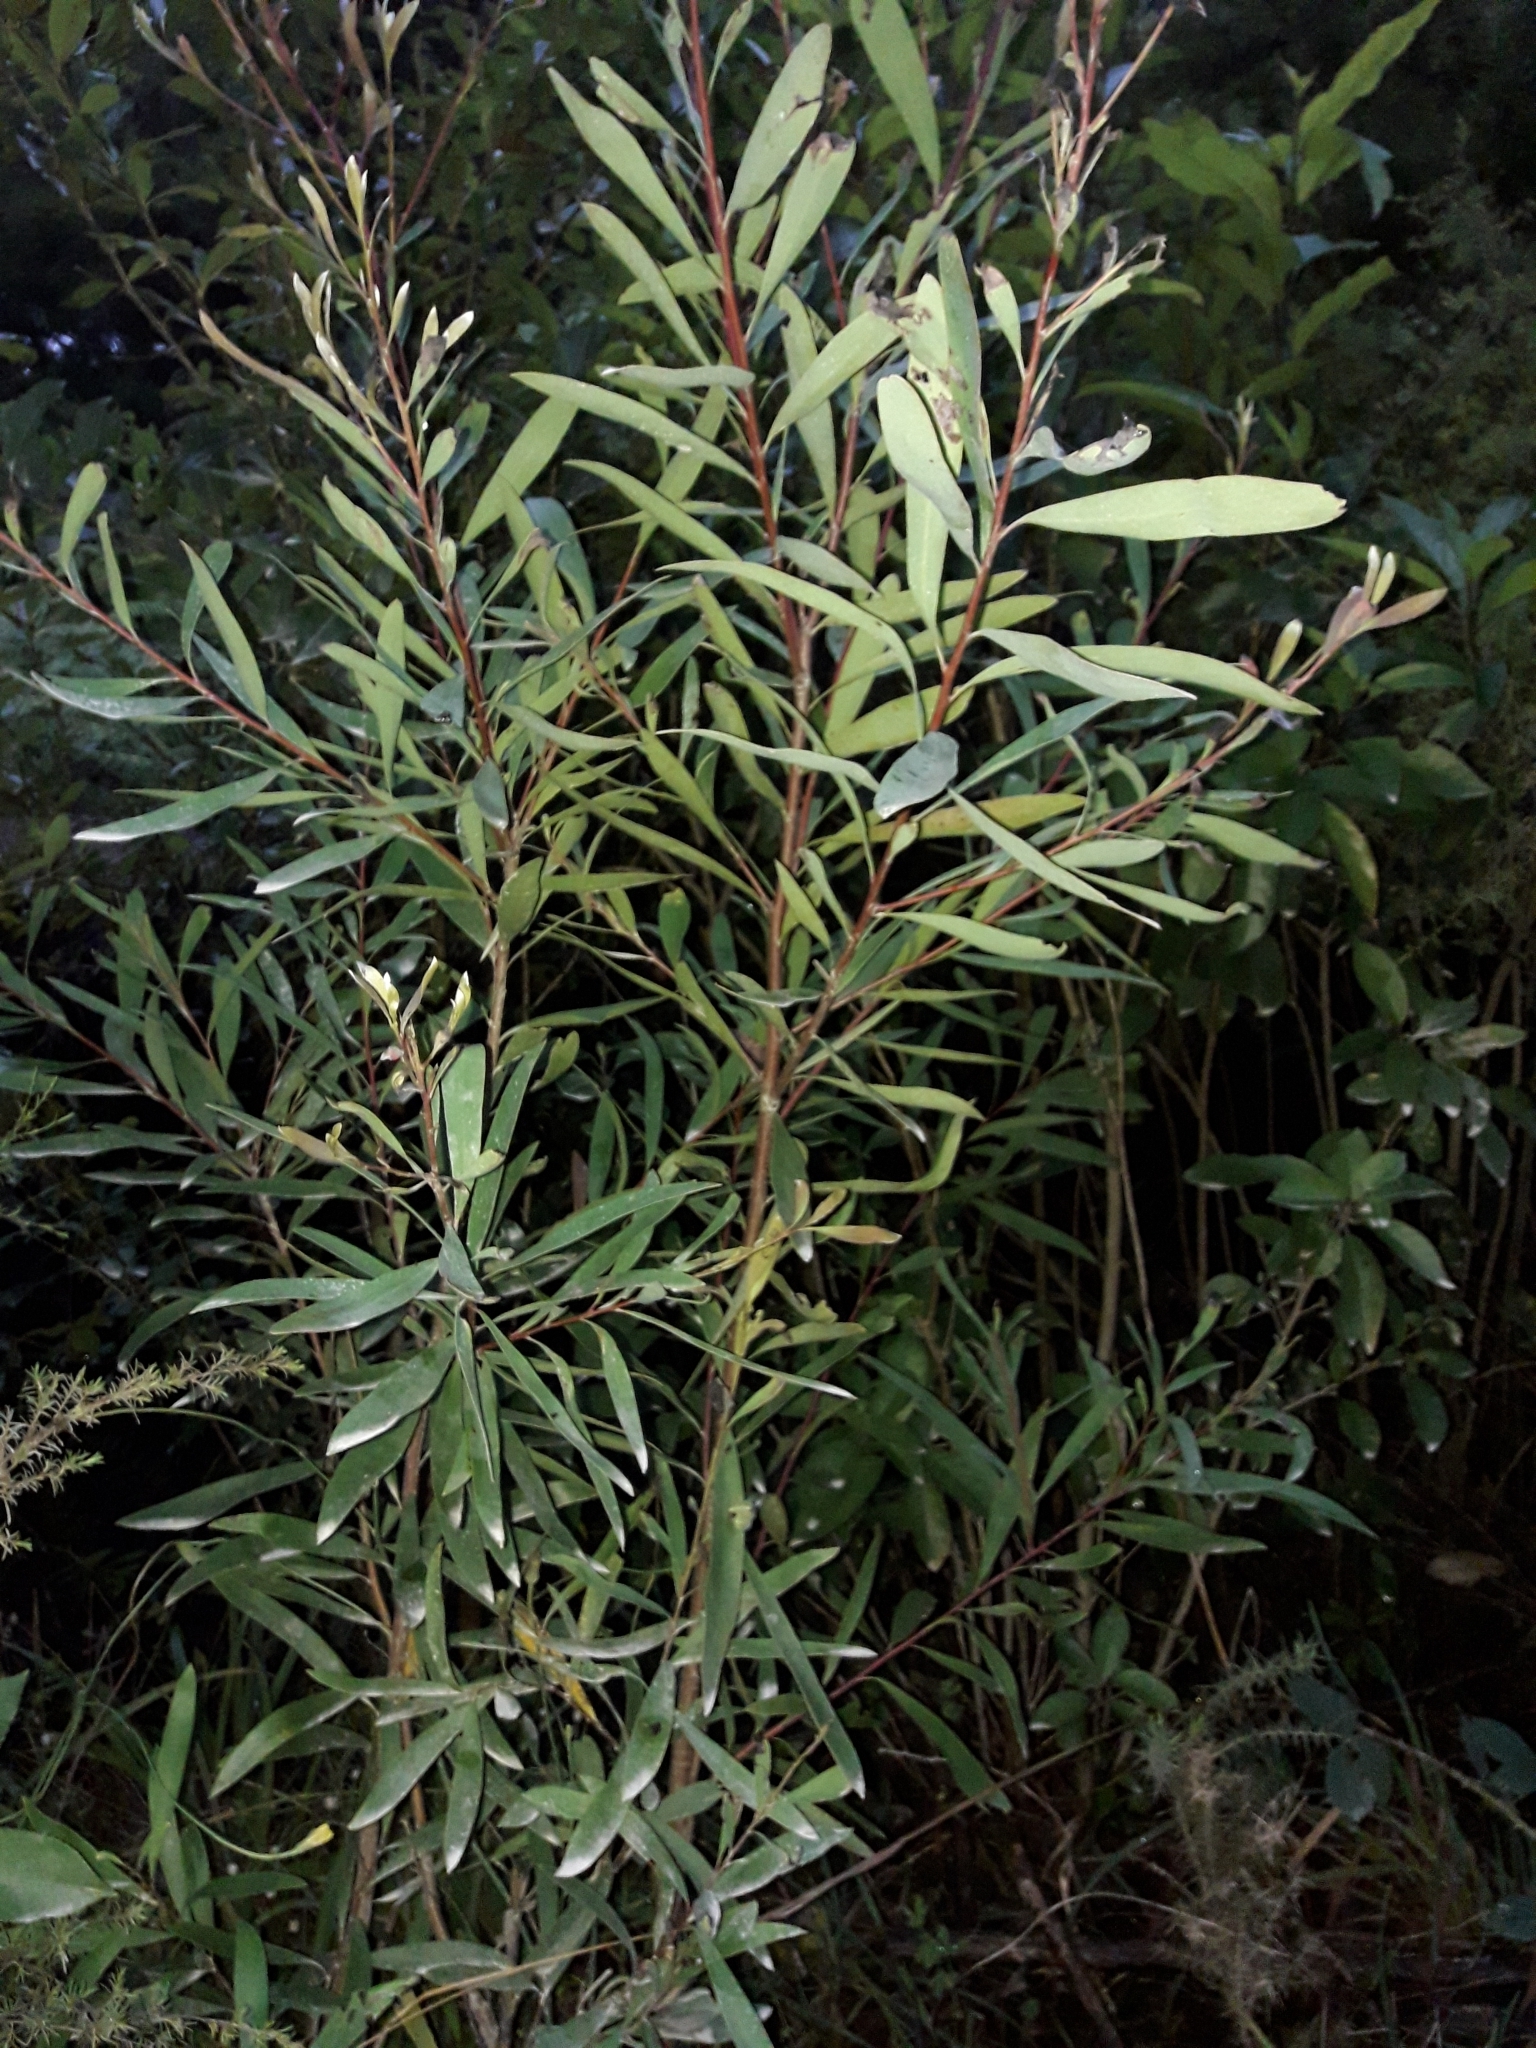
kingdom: Plantae
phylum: Tracheophyta
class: Magnoliopsida
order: Proteales
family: Proteaceae
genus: Hakea
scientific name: Hakea salicifolia
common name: Willow hakea
